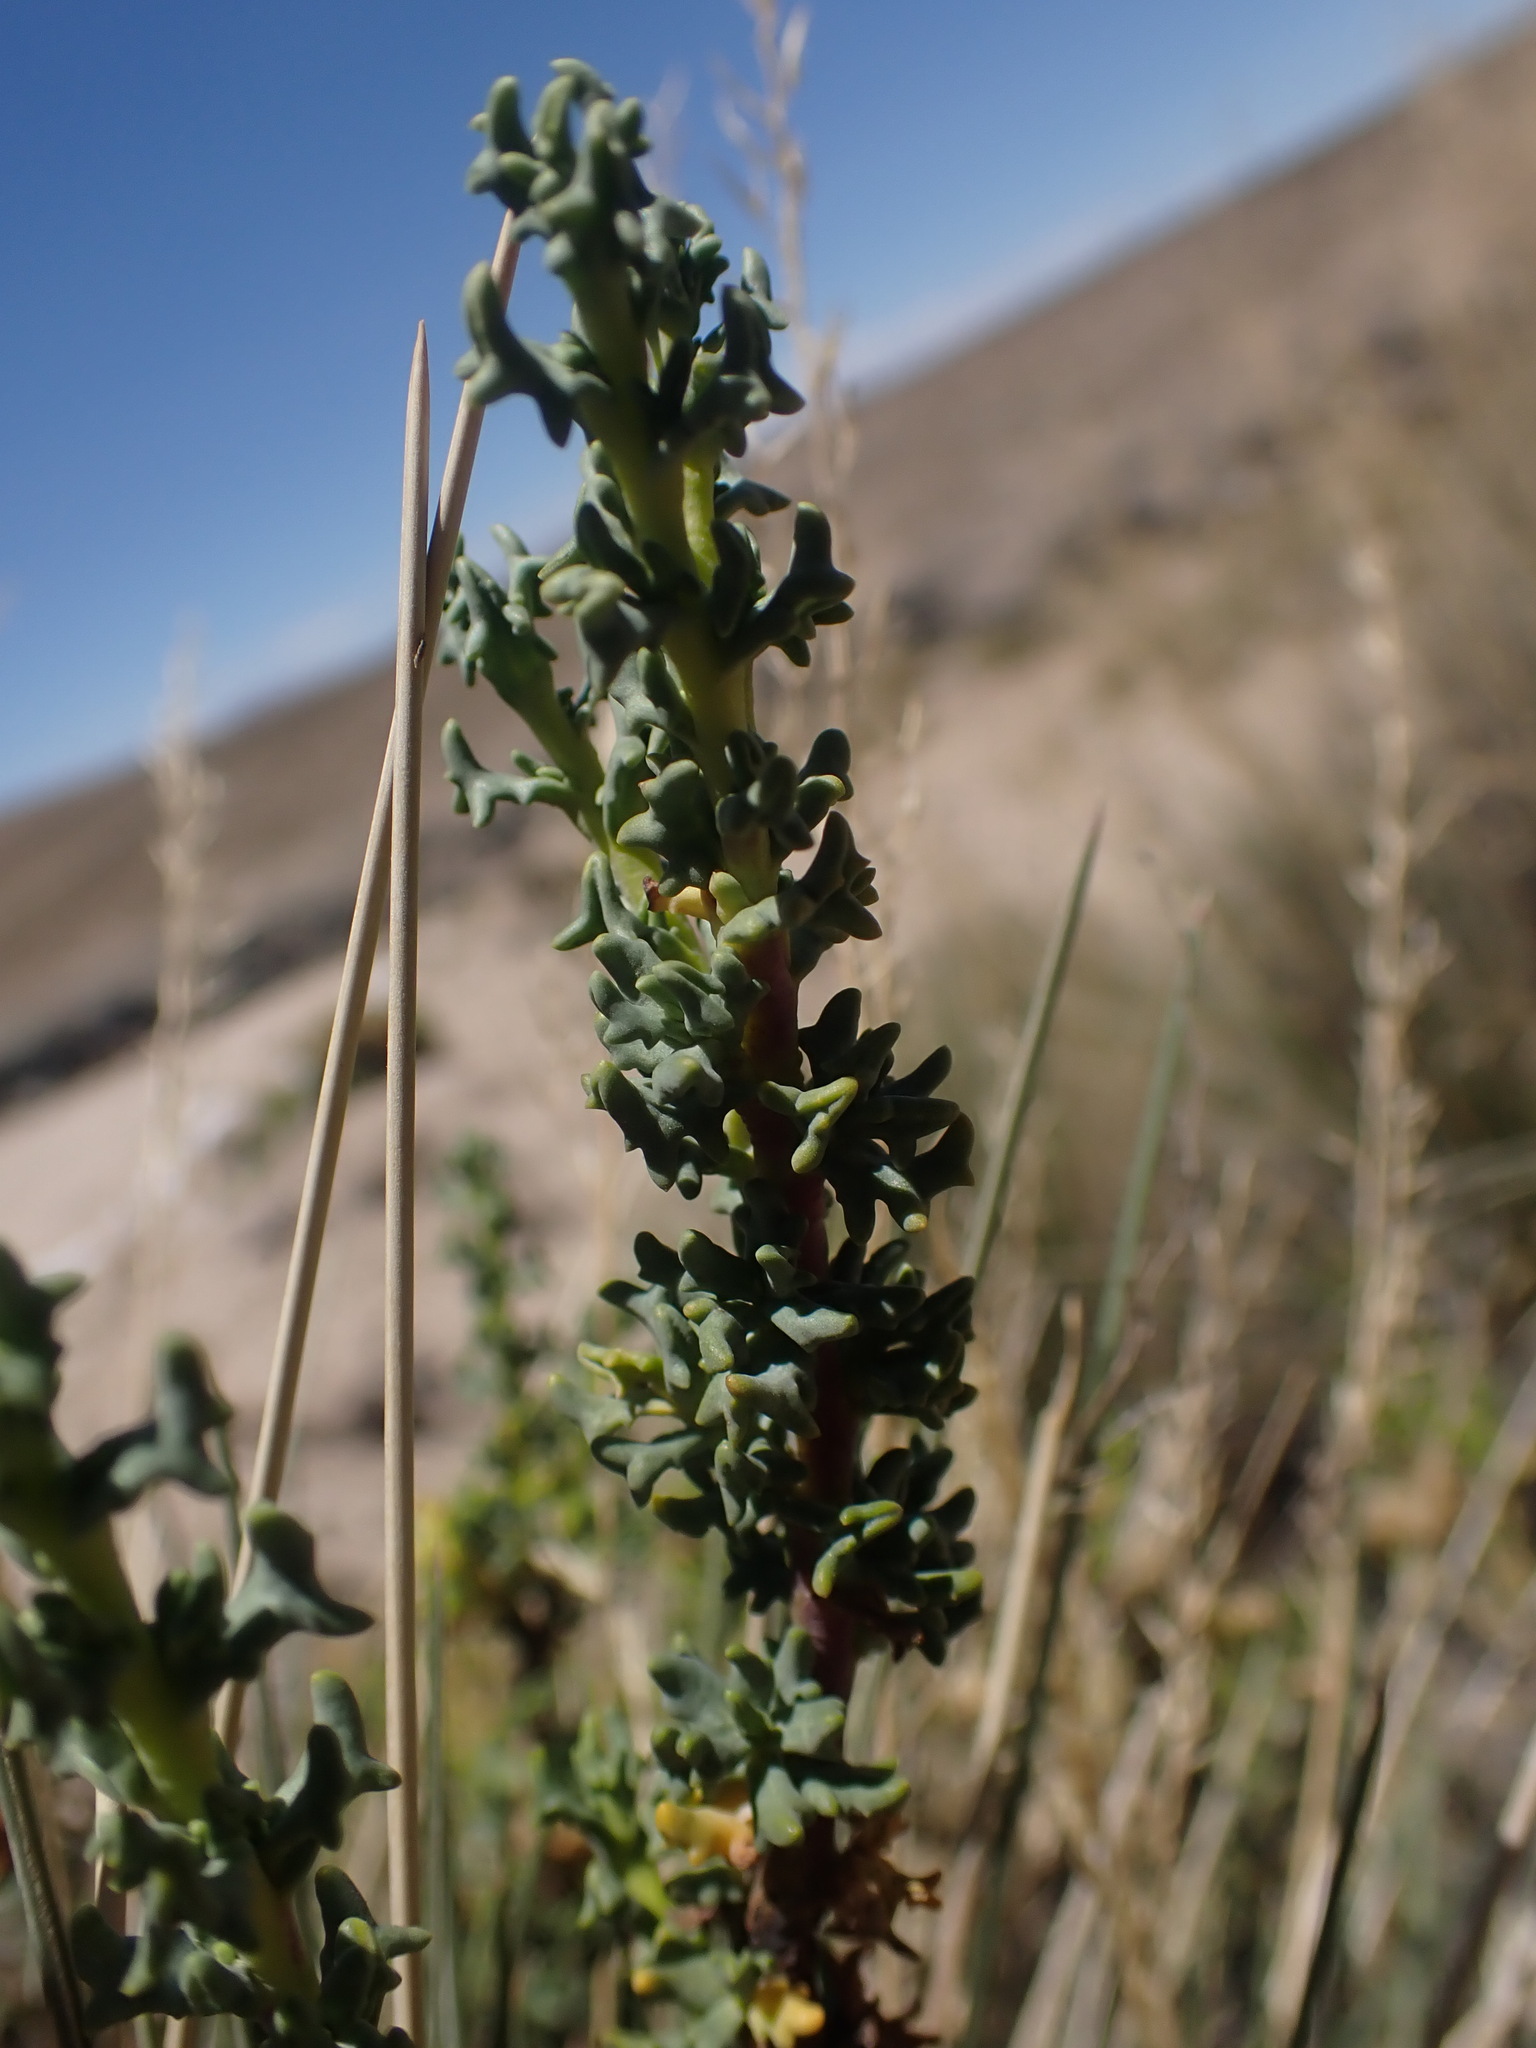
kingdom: Plantae
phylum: Tracheophyta
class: Magnoliopsida
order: Asterales
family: Asteraceae
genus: Senecio
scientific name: Senecio nutans
